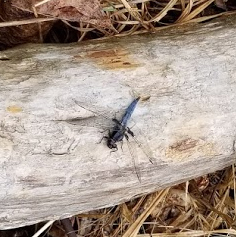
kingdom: Animalia
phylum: Arthropoda
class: Insecta
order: Odonata
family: Libellulidae
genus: Ladona
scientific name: Ladona deplanata
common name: Blue corporal
